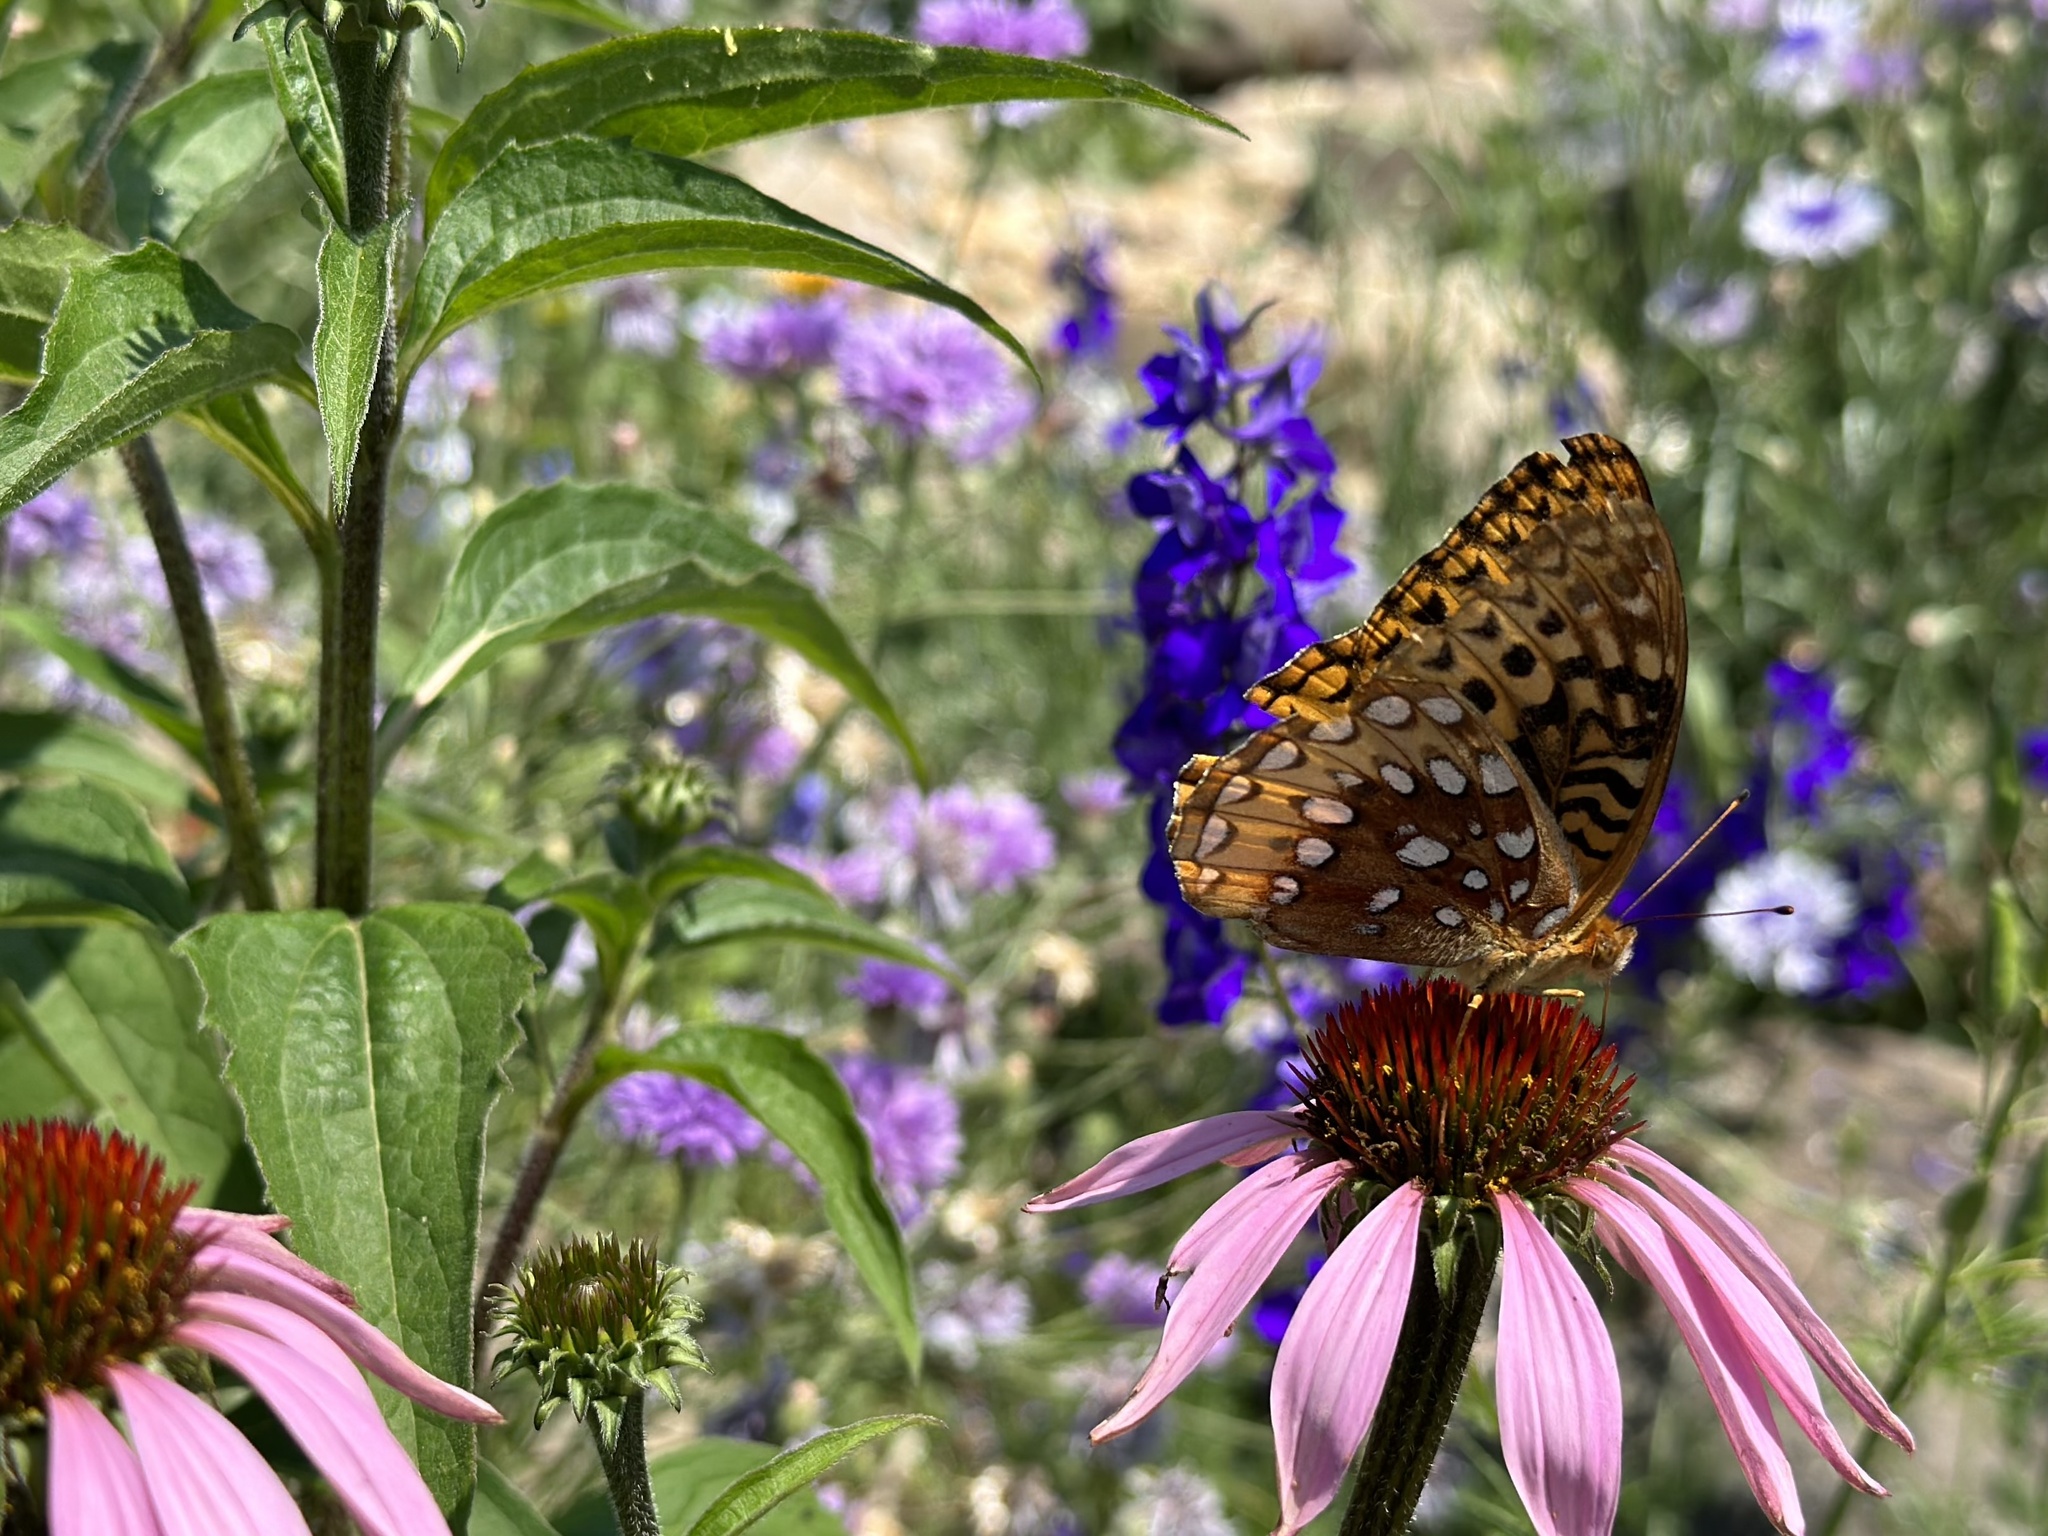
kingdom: Animalia
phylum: Arthropoda
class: Insecta
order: Lepidoptera
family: Nymphalidae
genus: Speyeria
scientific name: Speyeria cybele
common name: Great spangled fritillary
